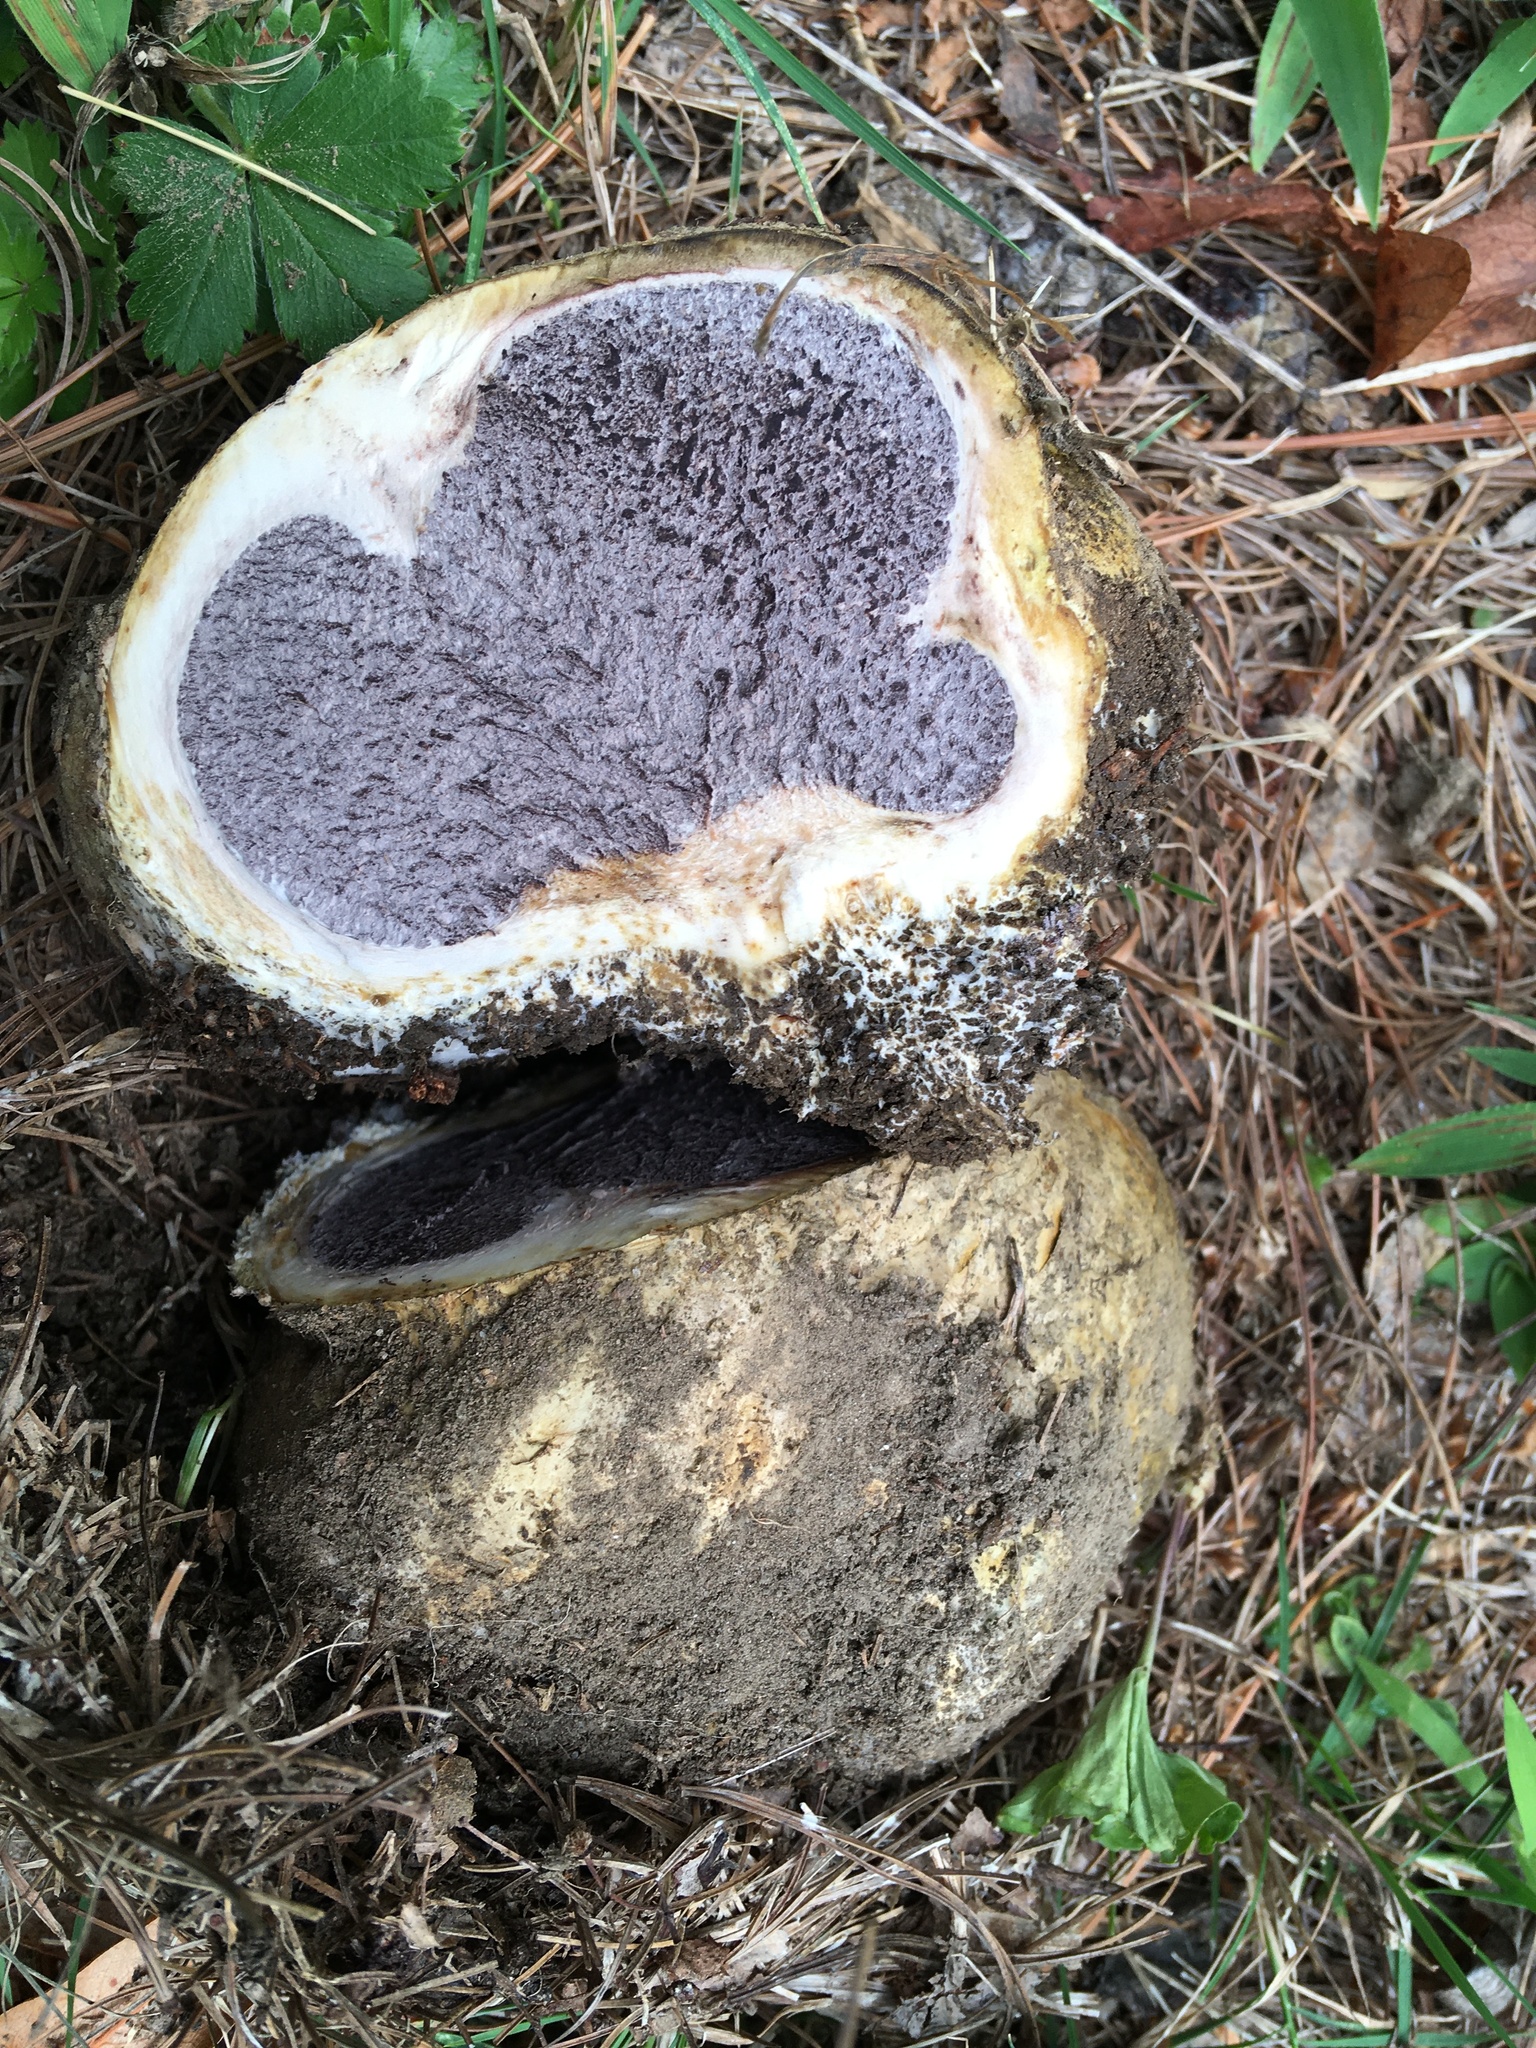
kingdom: Fungi
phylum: Basidiomycota
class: Agaricomycetes
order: Boletales
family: Sclerodermataceae
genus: Scleroderma
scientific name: Scleroderma polyrhizum
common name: Many-rooted earthball
